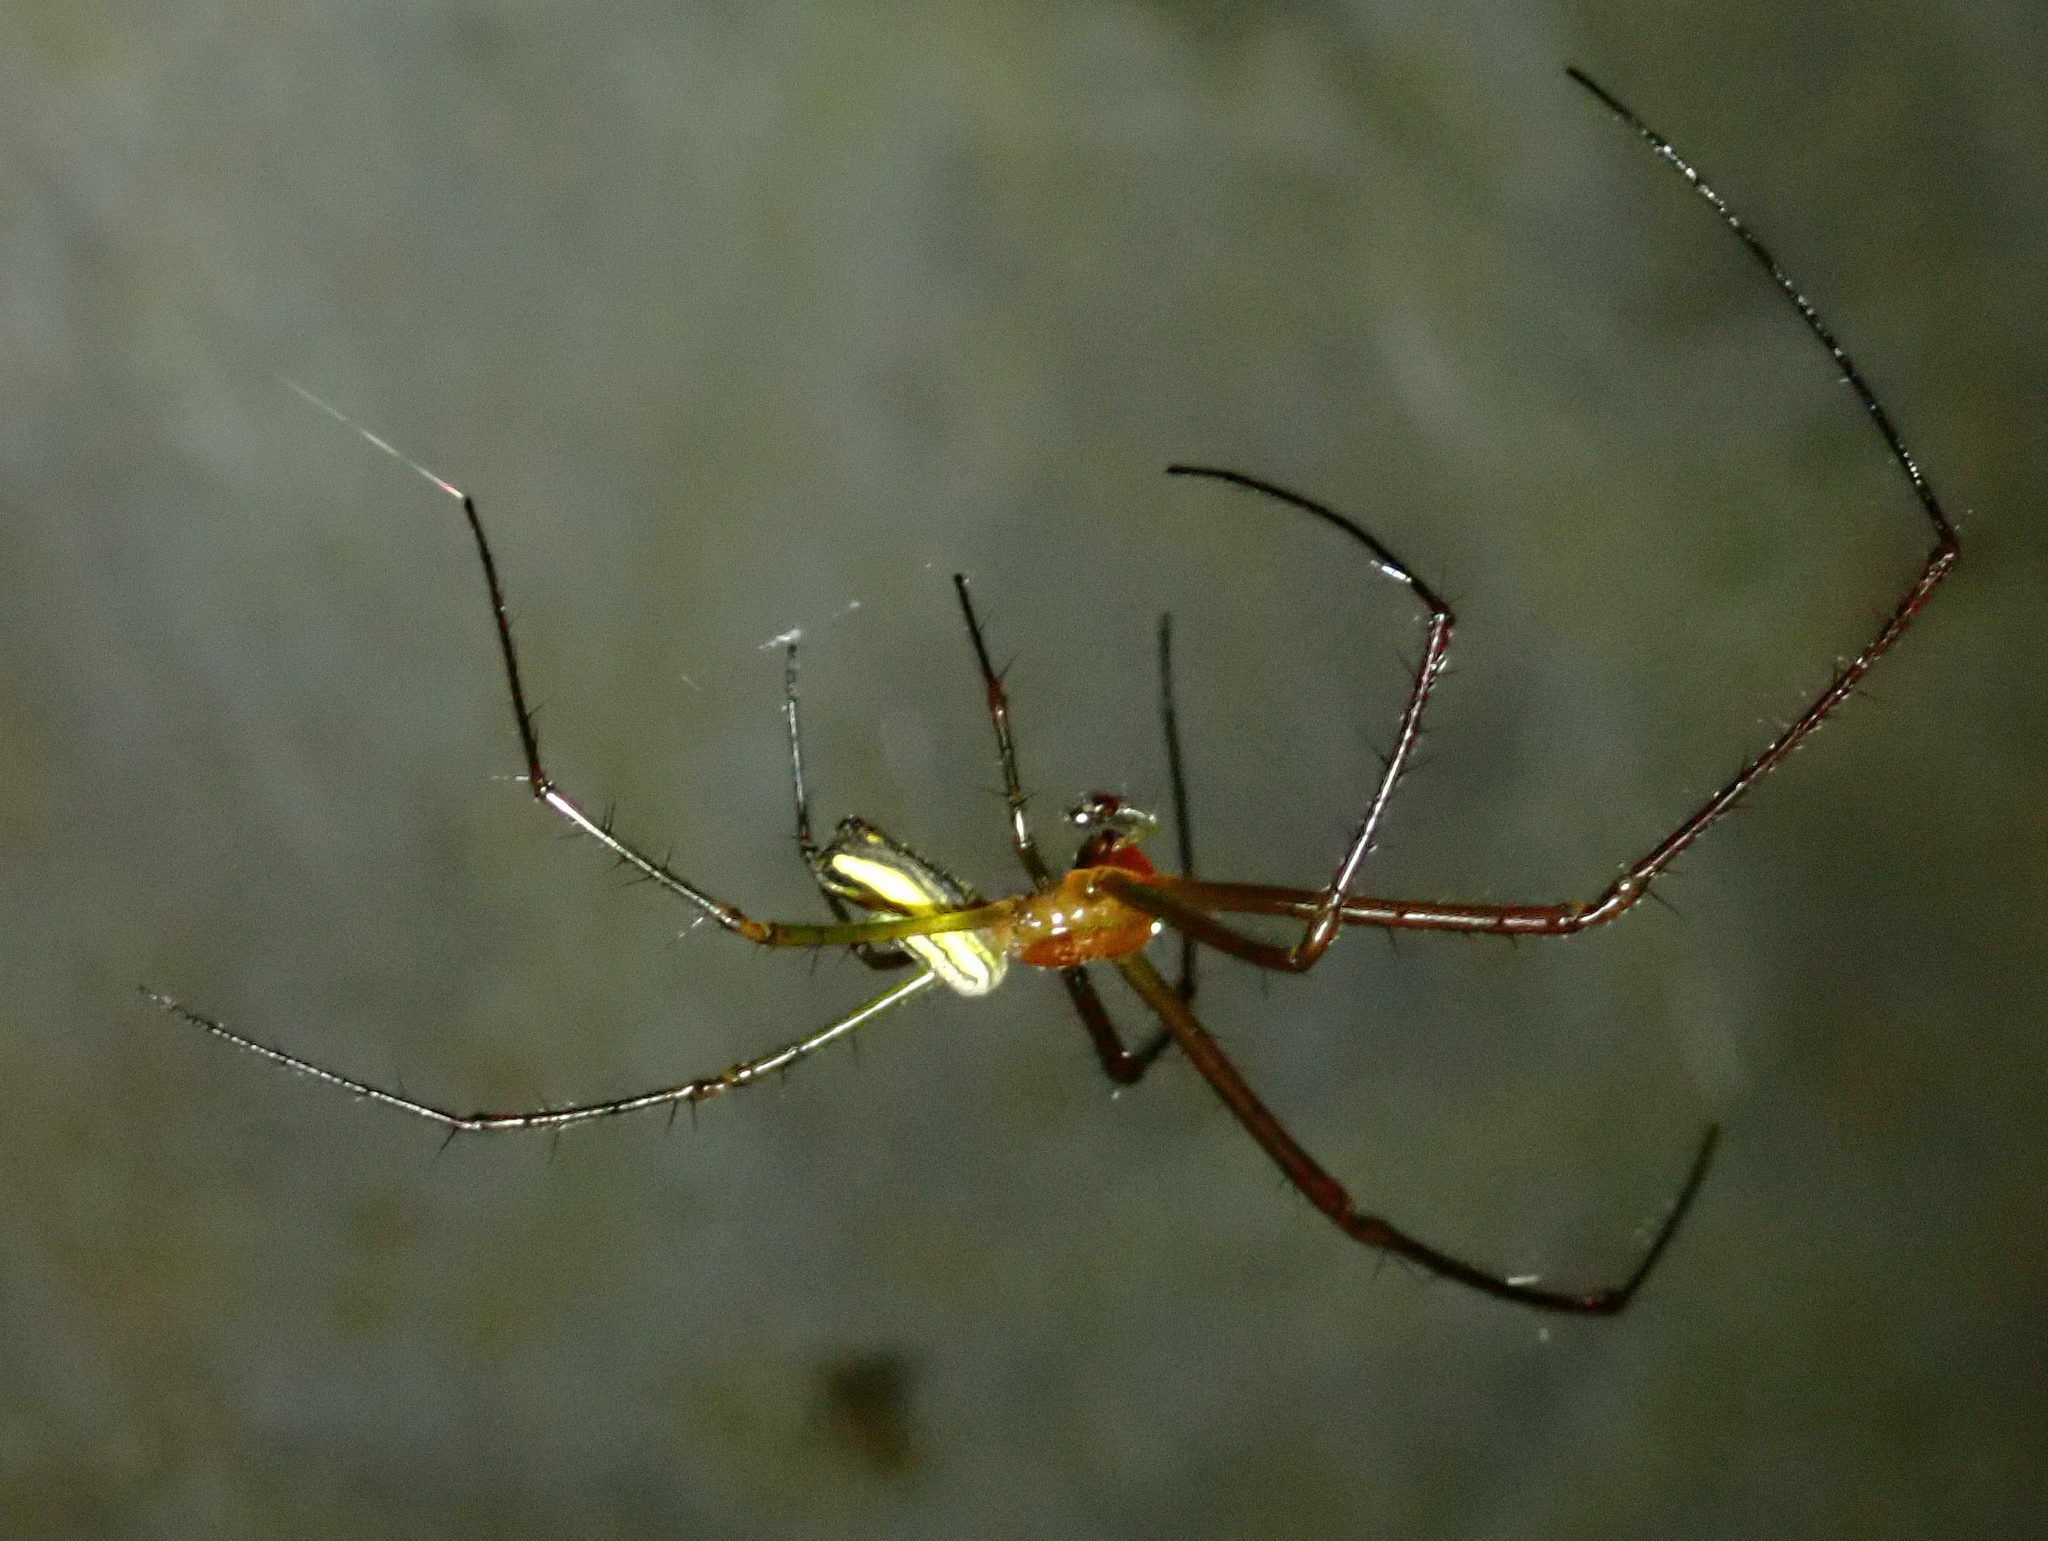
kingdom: Animalia
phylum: Arthropoda
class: Arachnida
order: Araneae
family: Tetragnathidae
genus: Leucauge
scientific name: Leucauge celebesiana
